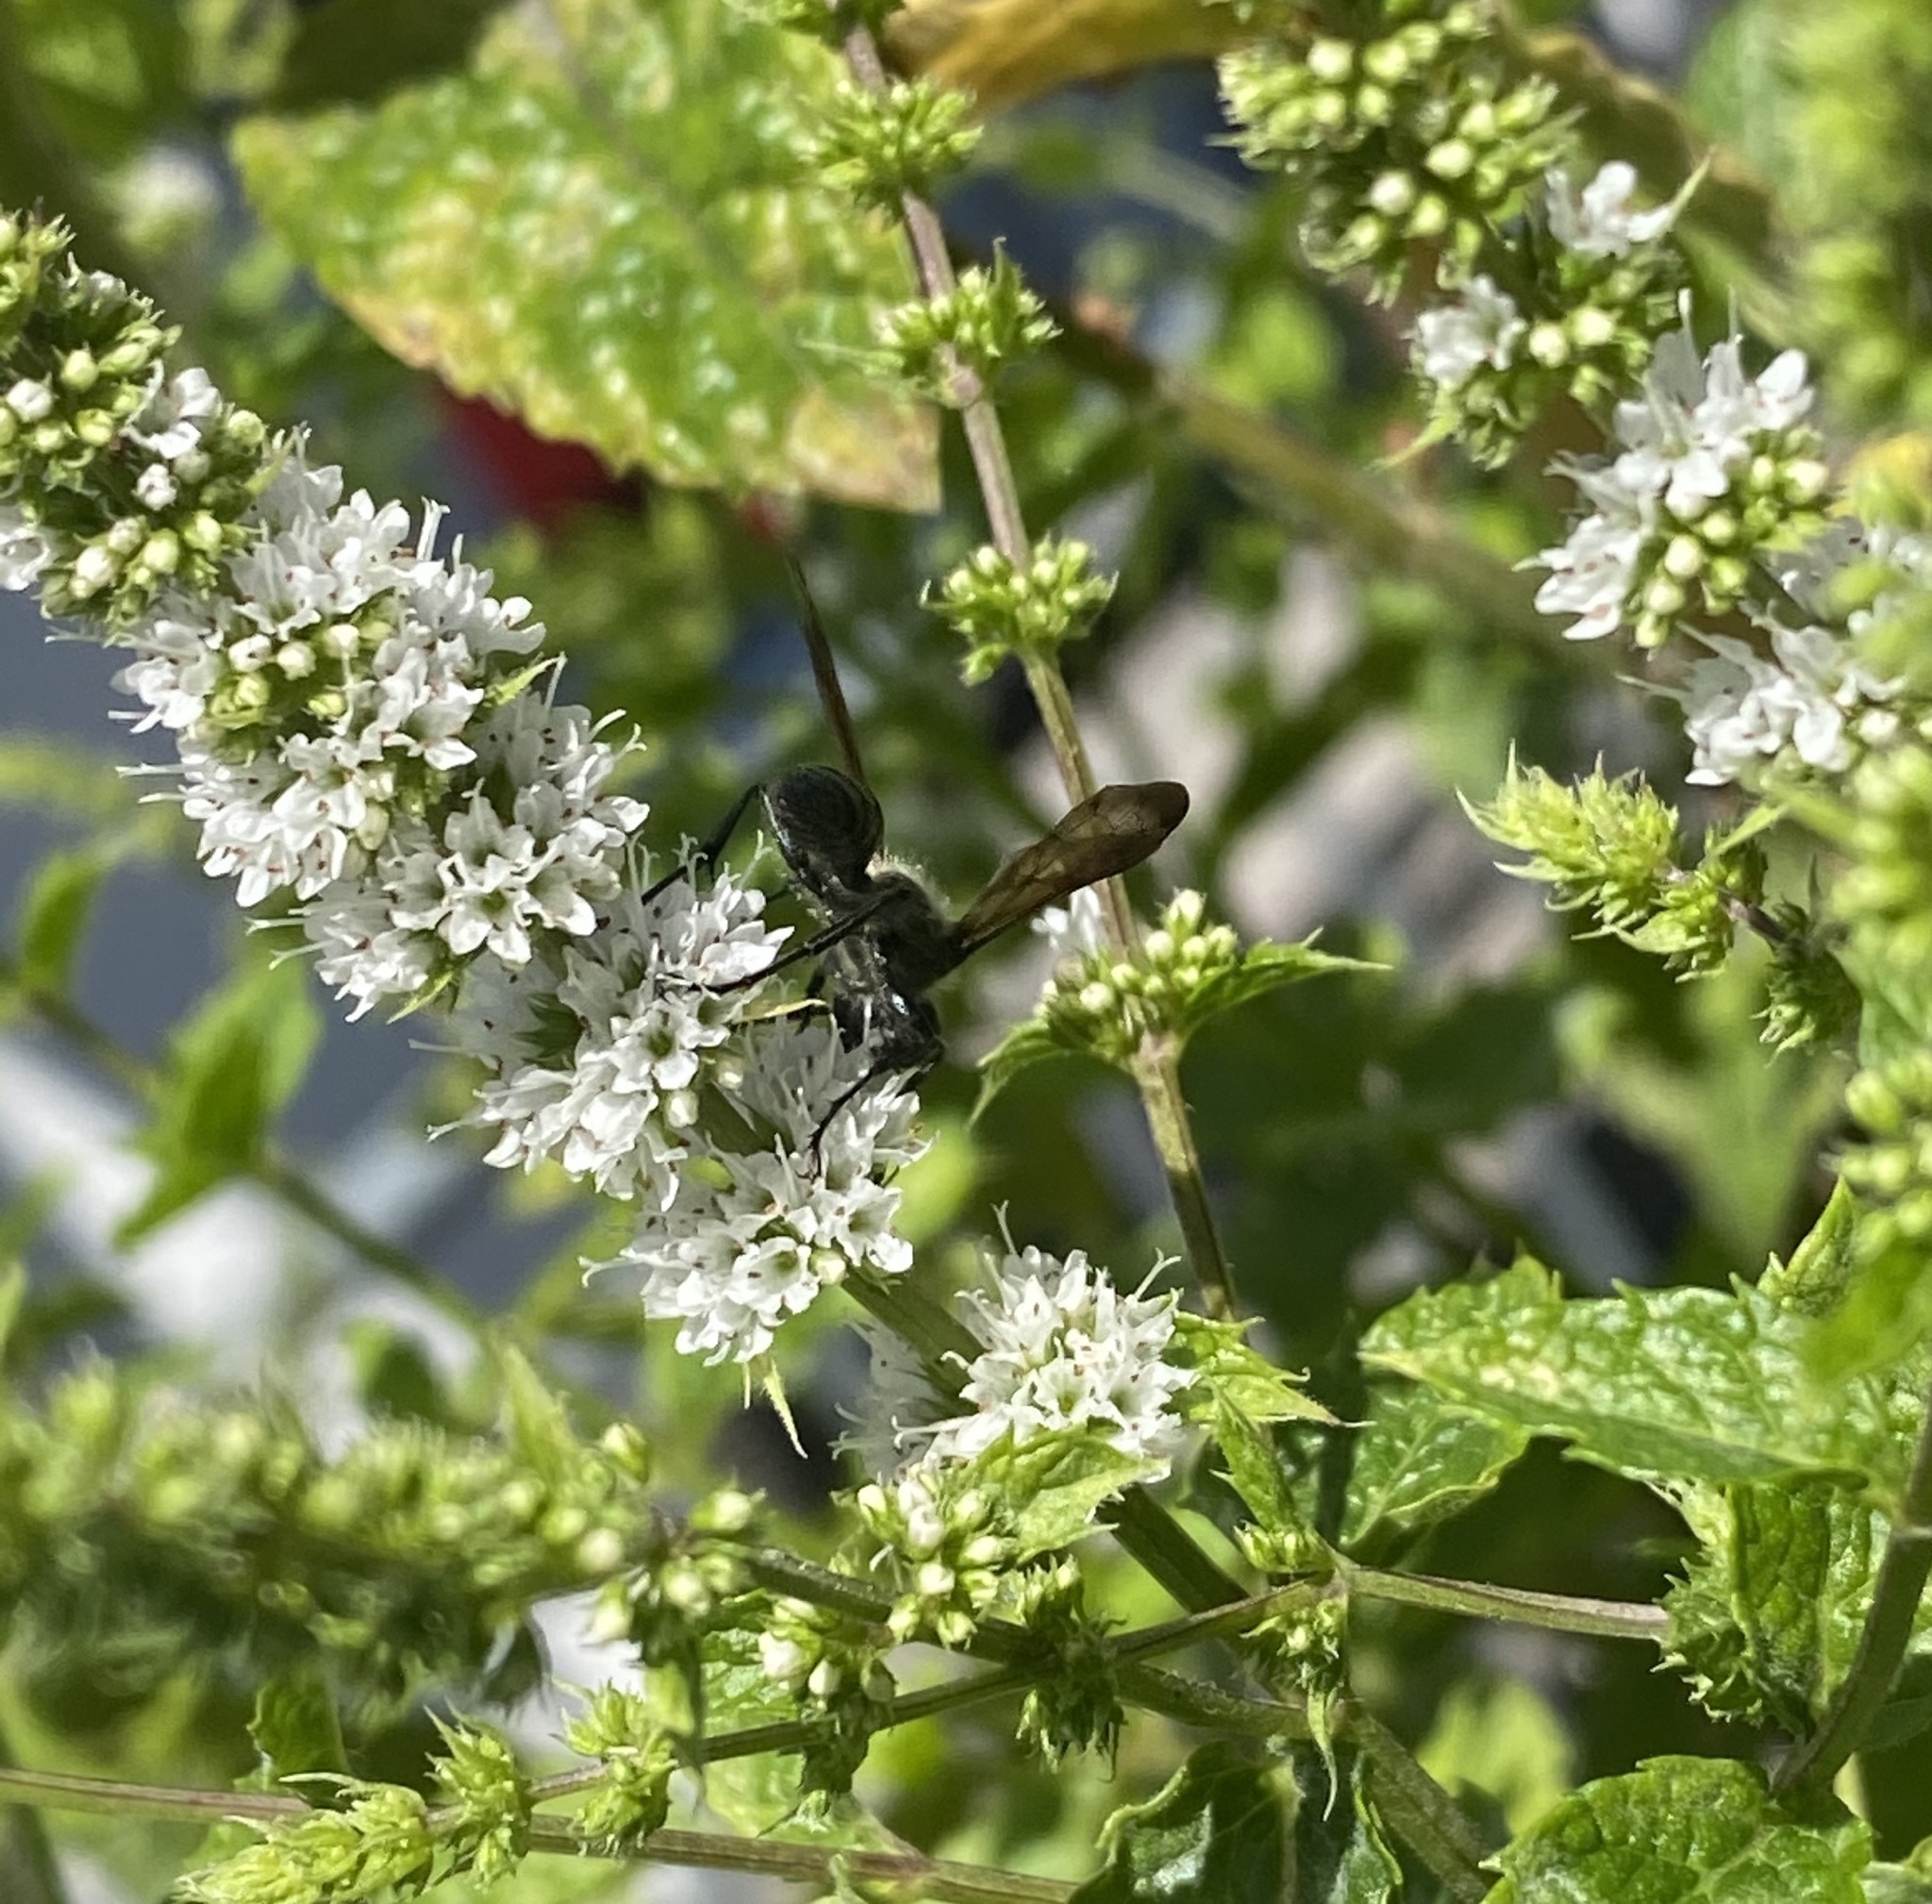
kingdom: Animalia
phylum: Arthropoda
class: Insecta
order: Hymenoptera
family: Sphecidae
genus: Isodontia
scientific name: Isodontia mexicana
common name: Mud dauber
